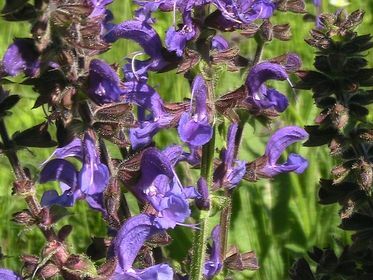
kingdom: Plantae
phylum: Tracheophyta
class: Magnoliopsida
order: Lamiales
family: Lamiaceae
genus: Salvia
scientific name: Salvia pratensis
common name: Meadow sage
